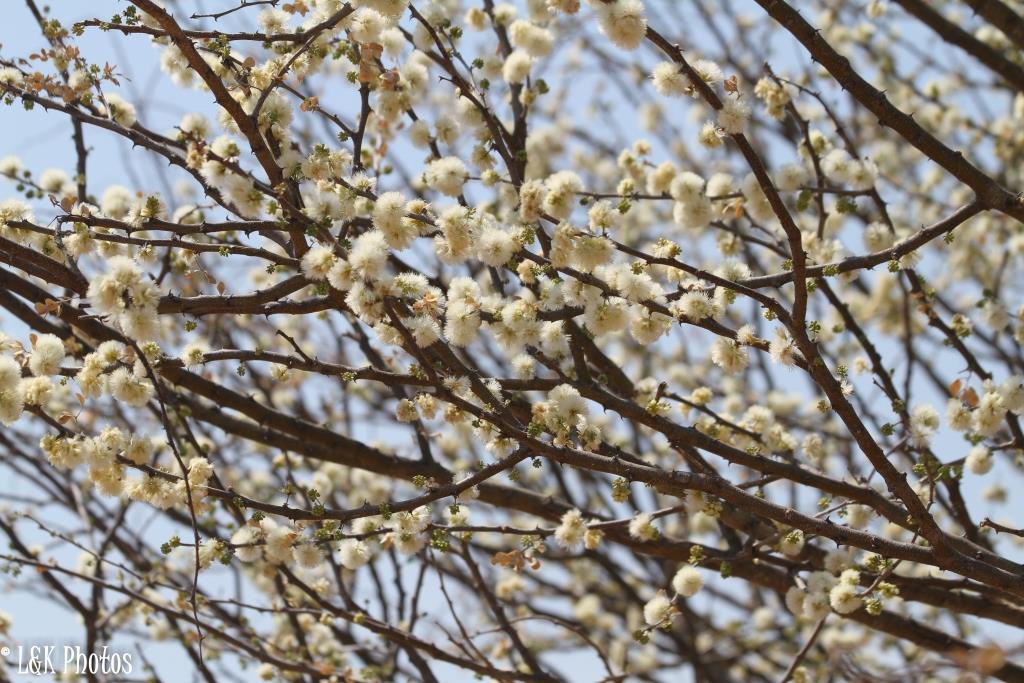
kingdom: Plantae
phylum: Tracheophyta
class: Magnoliopsida
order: Fabales
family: Fabaceae
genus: Senegalia
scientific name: Senegalia mellifera
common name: Hookthorn
